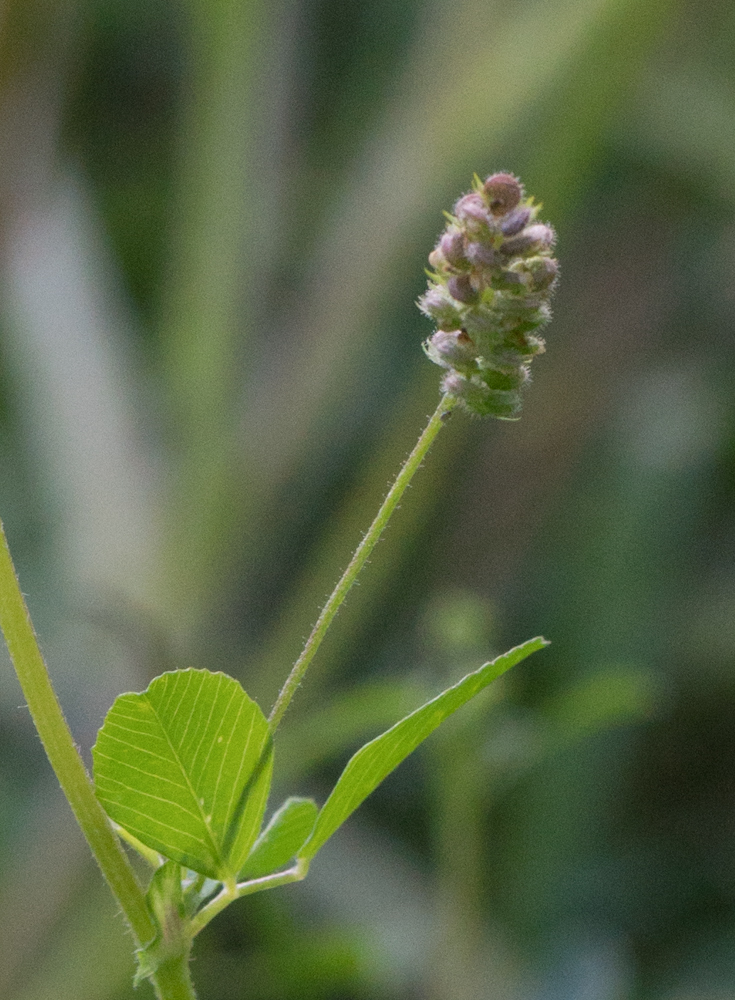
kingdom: Plantae
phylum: Tracheophyta
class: Magnoliopsida
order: Fabales
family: Fabaceae
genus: Medicago
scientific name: Medicago lupulina
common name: Black medick
